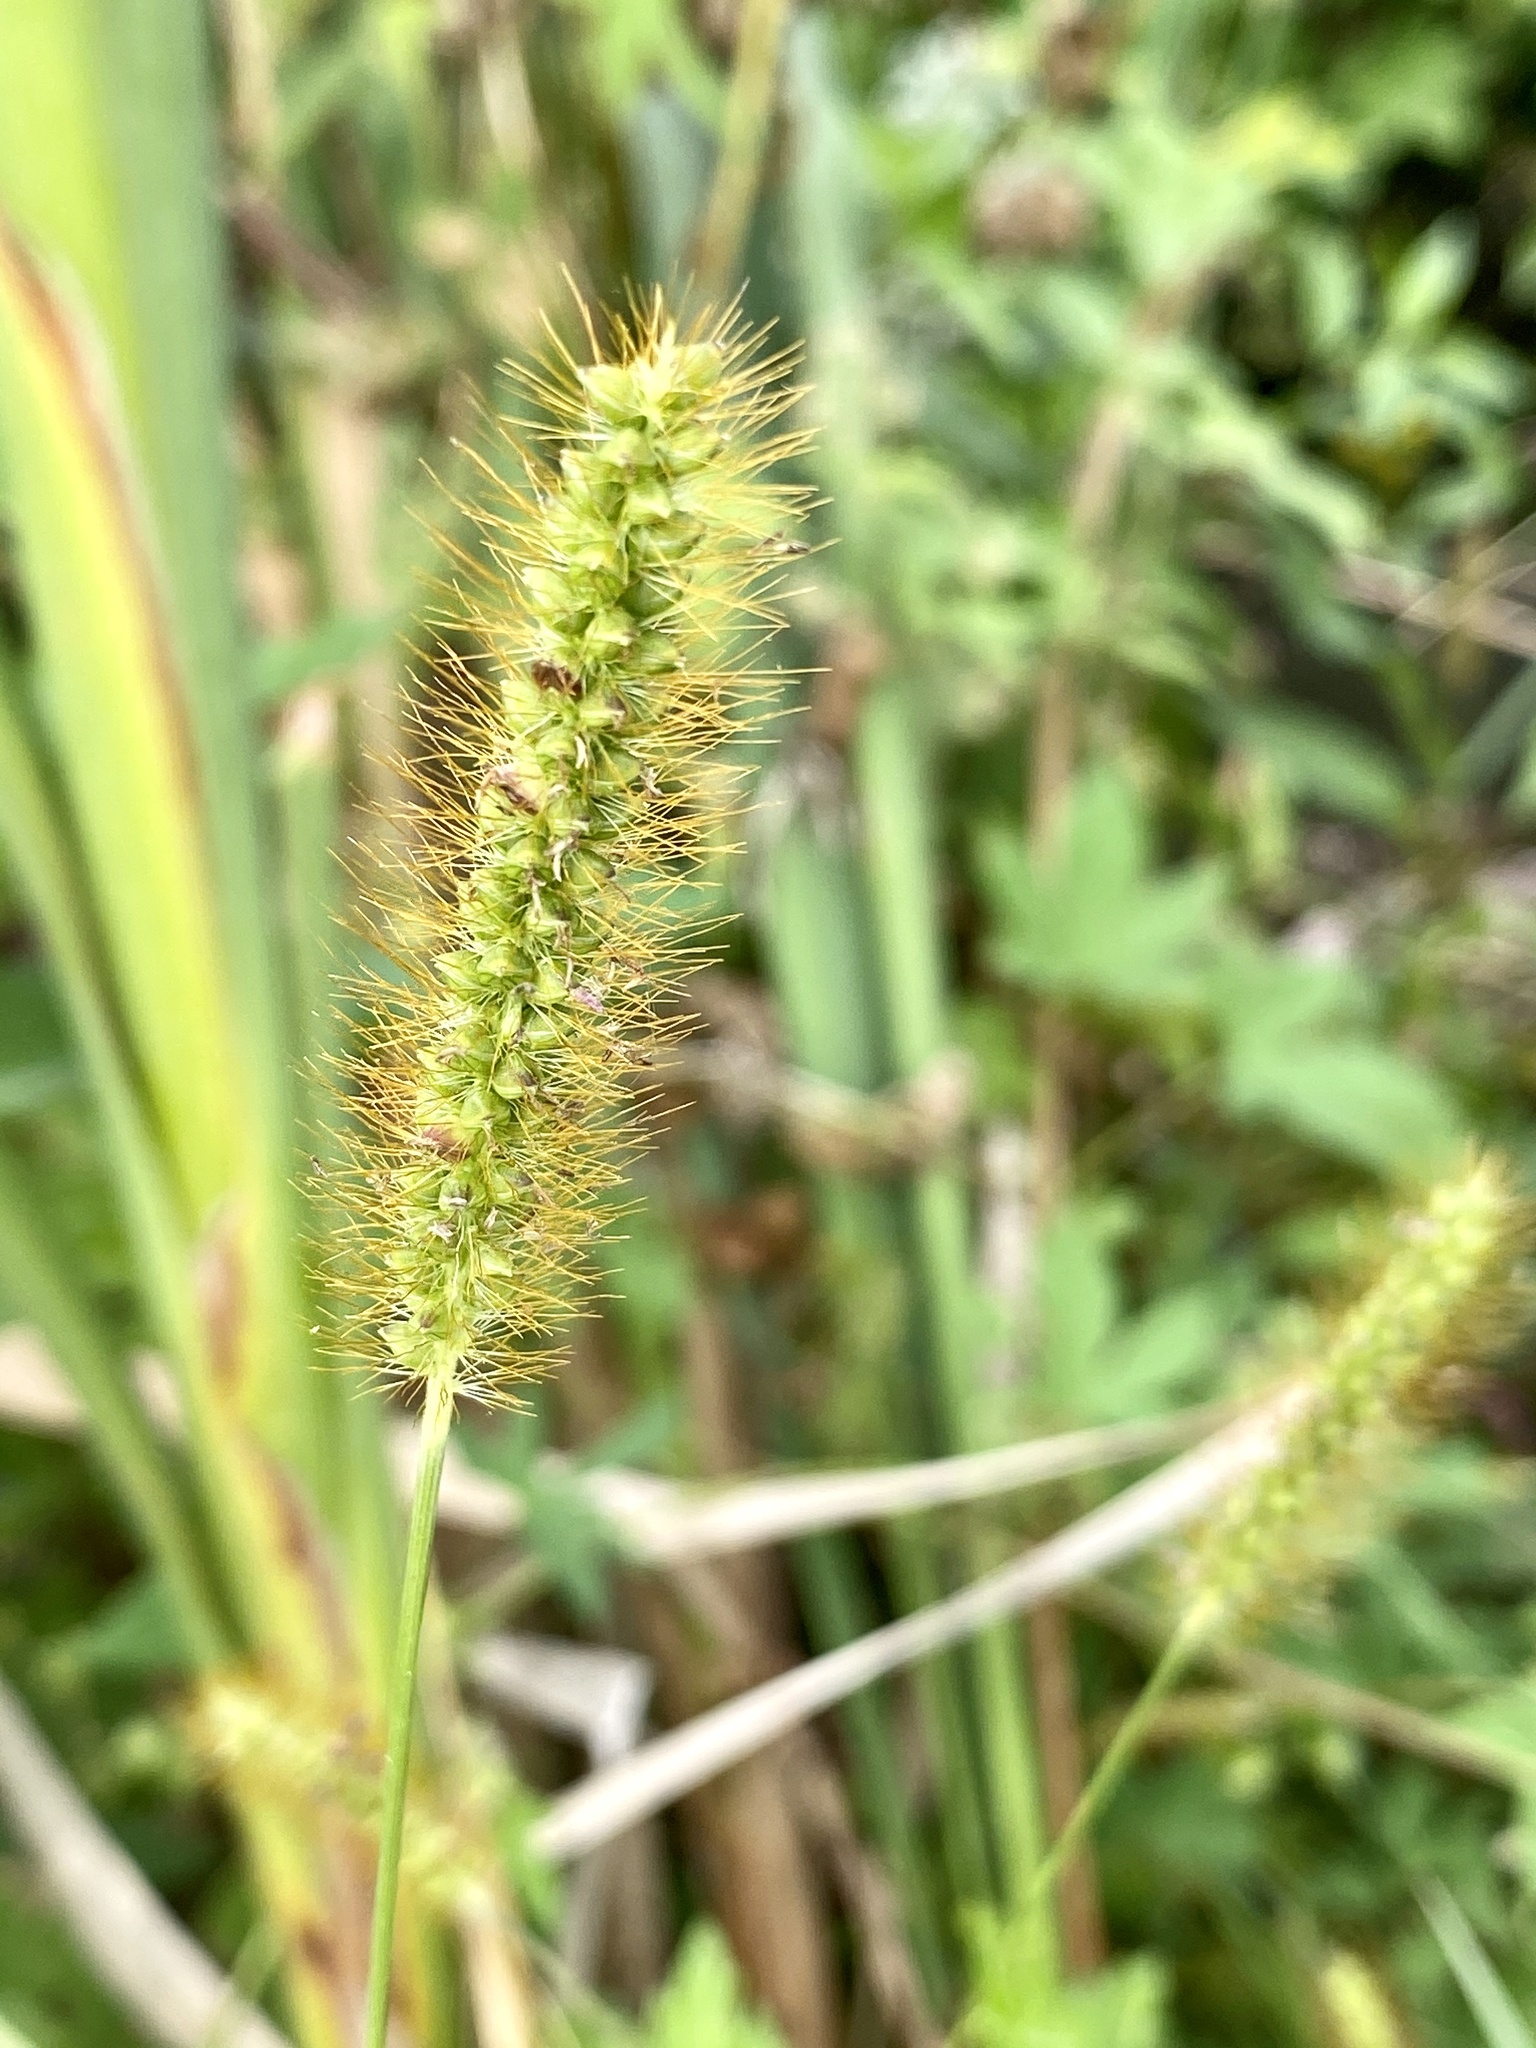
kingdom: Plantae
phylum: Tracheophyta
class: Liliopsida
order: Poales
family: Poaceae
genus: Setaria
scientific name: Setaria pumila
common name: Yellow bristle-grass
